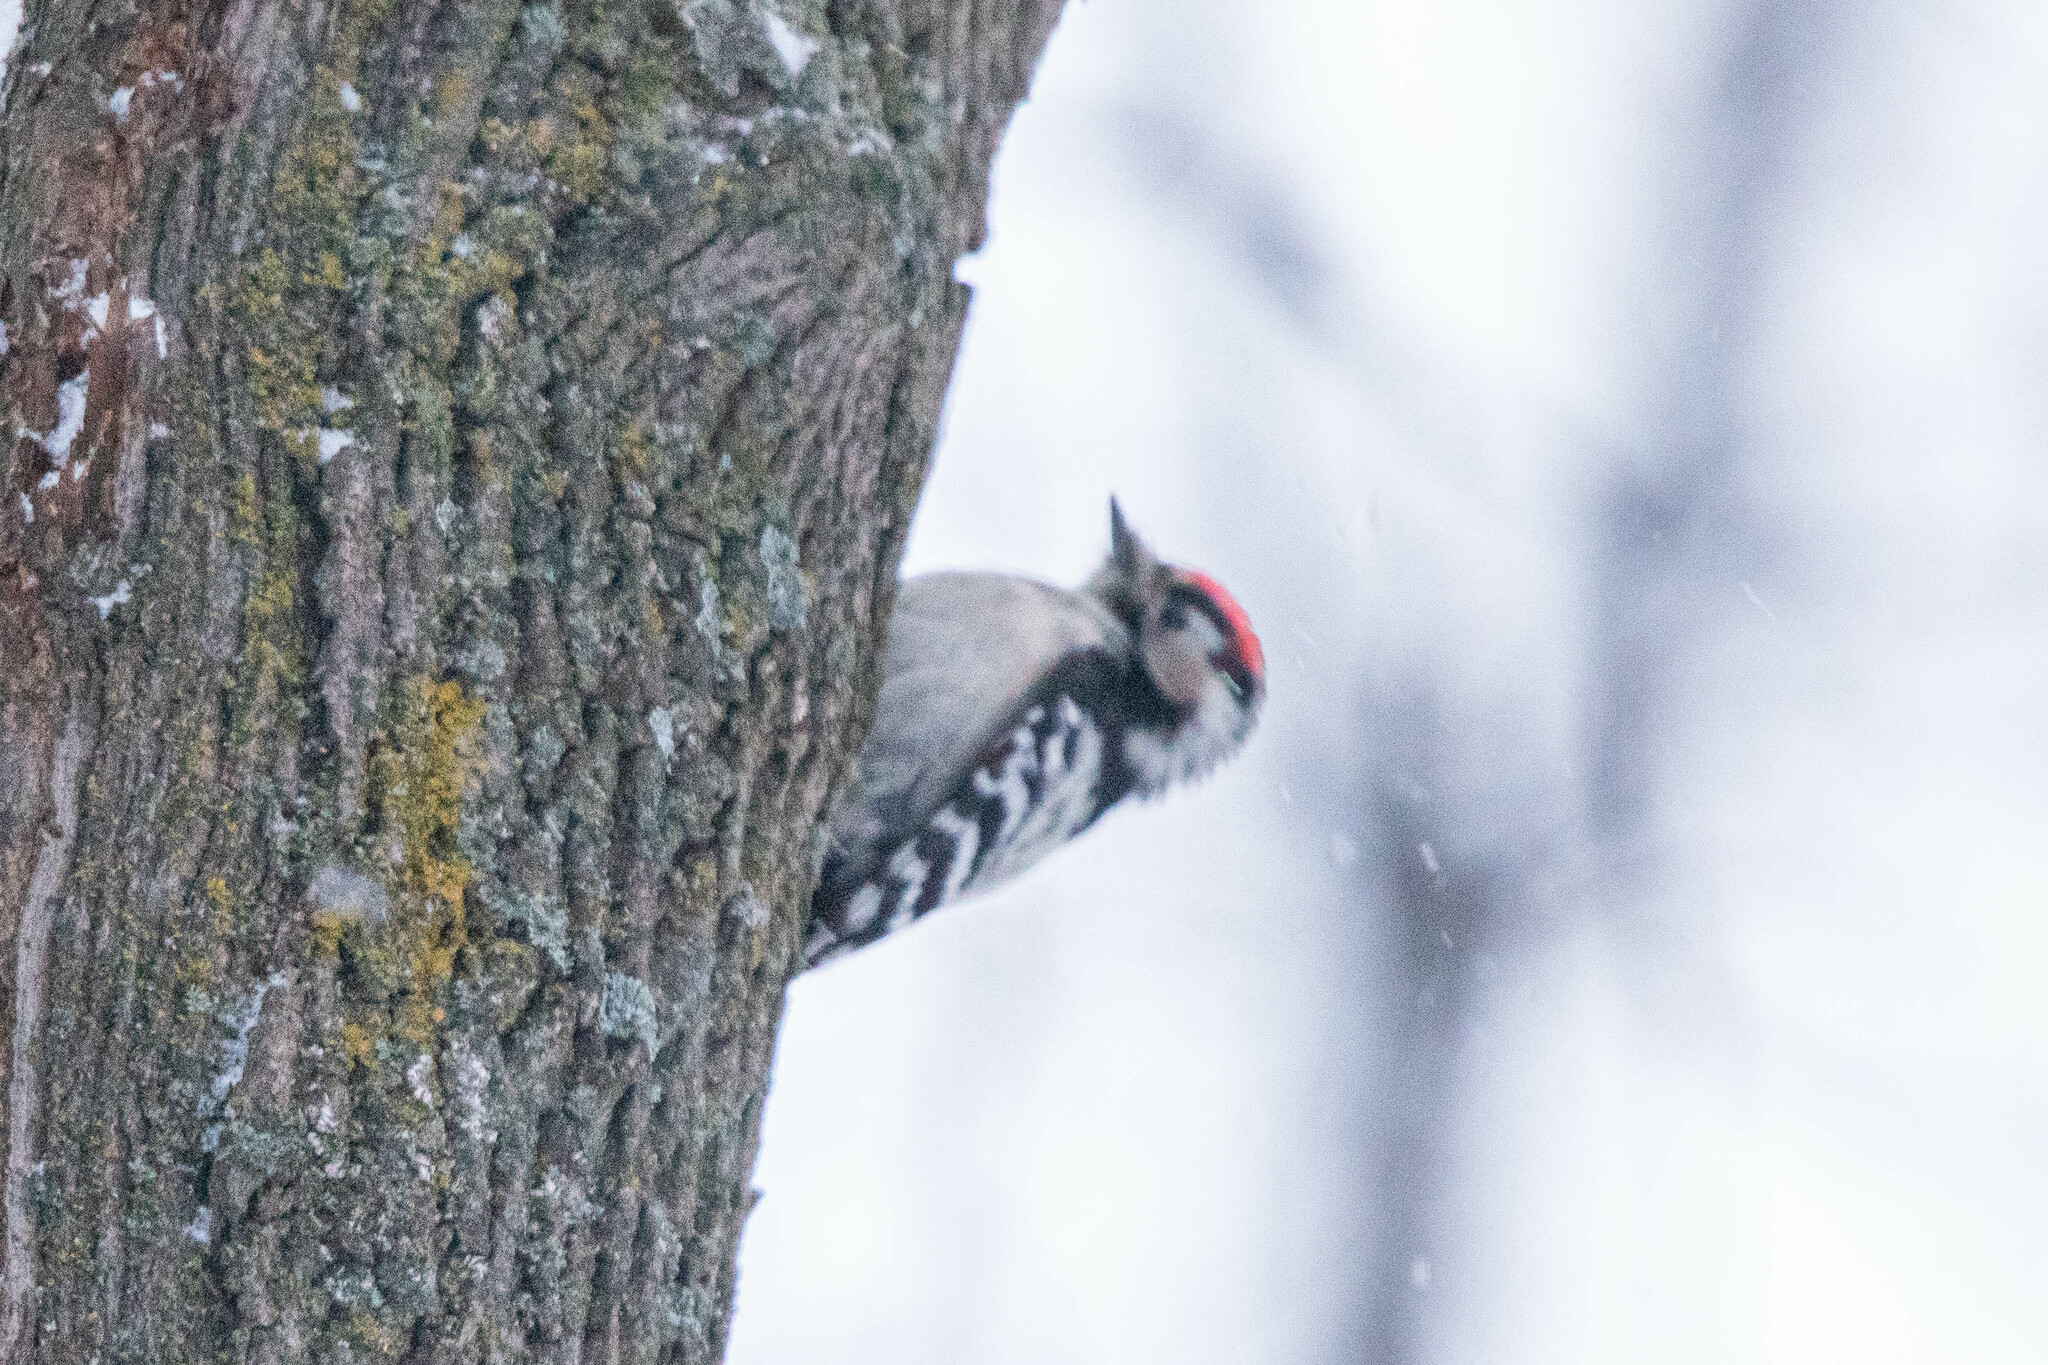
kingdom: Animalia
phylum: Chordata
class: Aves
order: Piciformes
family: Picidae
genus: Dryobates
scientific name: Dryobates minor
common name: Lesser spotted woodpecker
